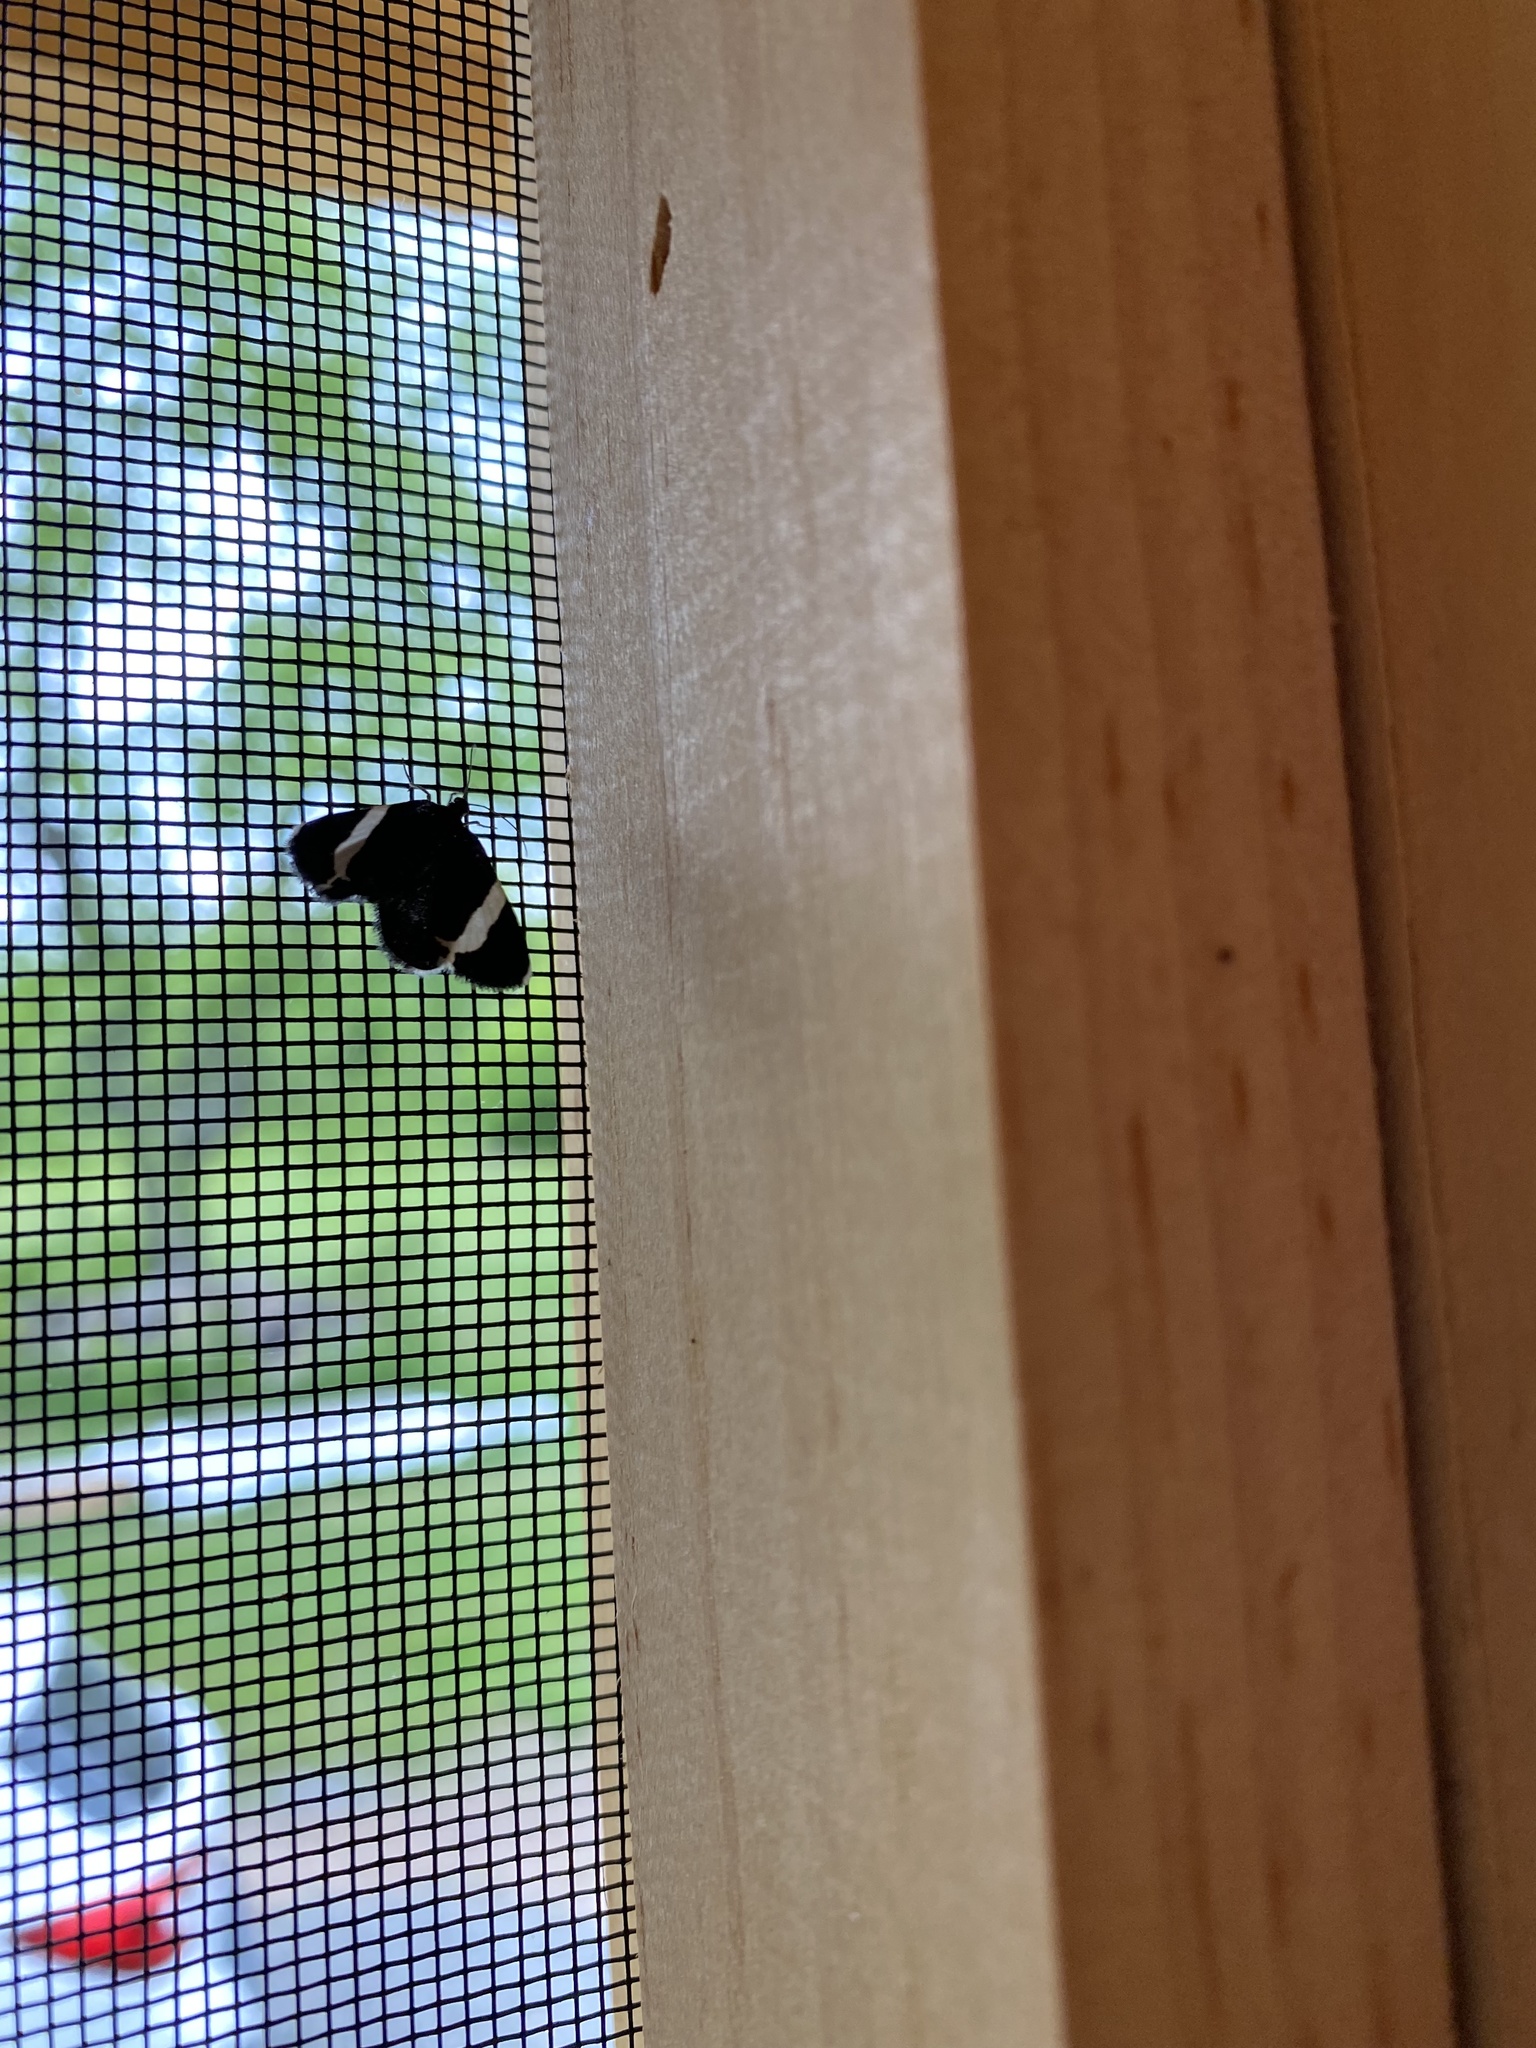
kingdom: Animalia
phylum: Arthropoda
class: Insecta
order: Lepidoptera
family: Geometridae
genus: Trichodezia
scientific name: Trichodezia albovittata
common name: White striped black
